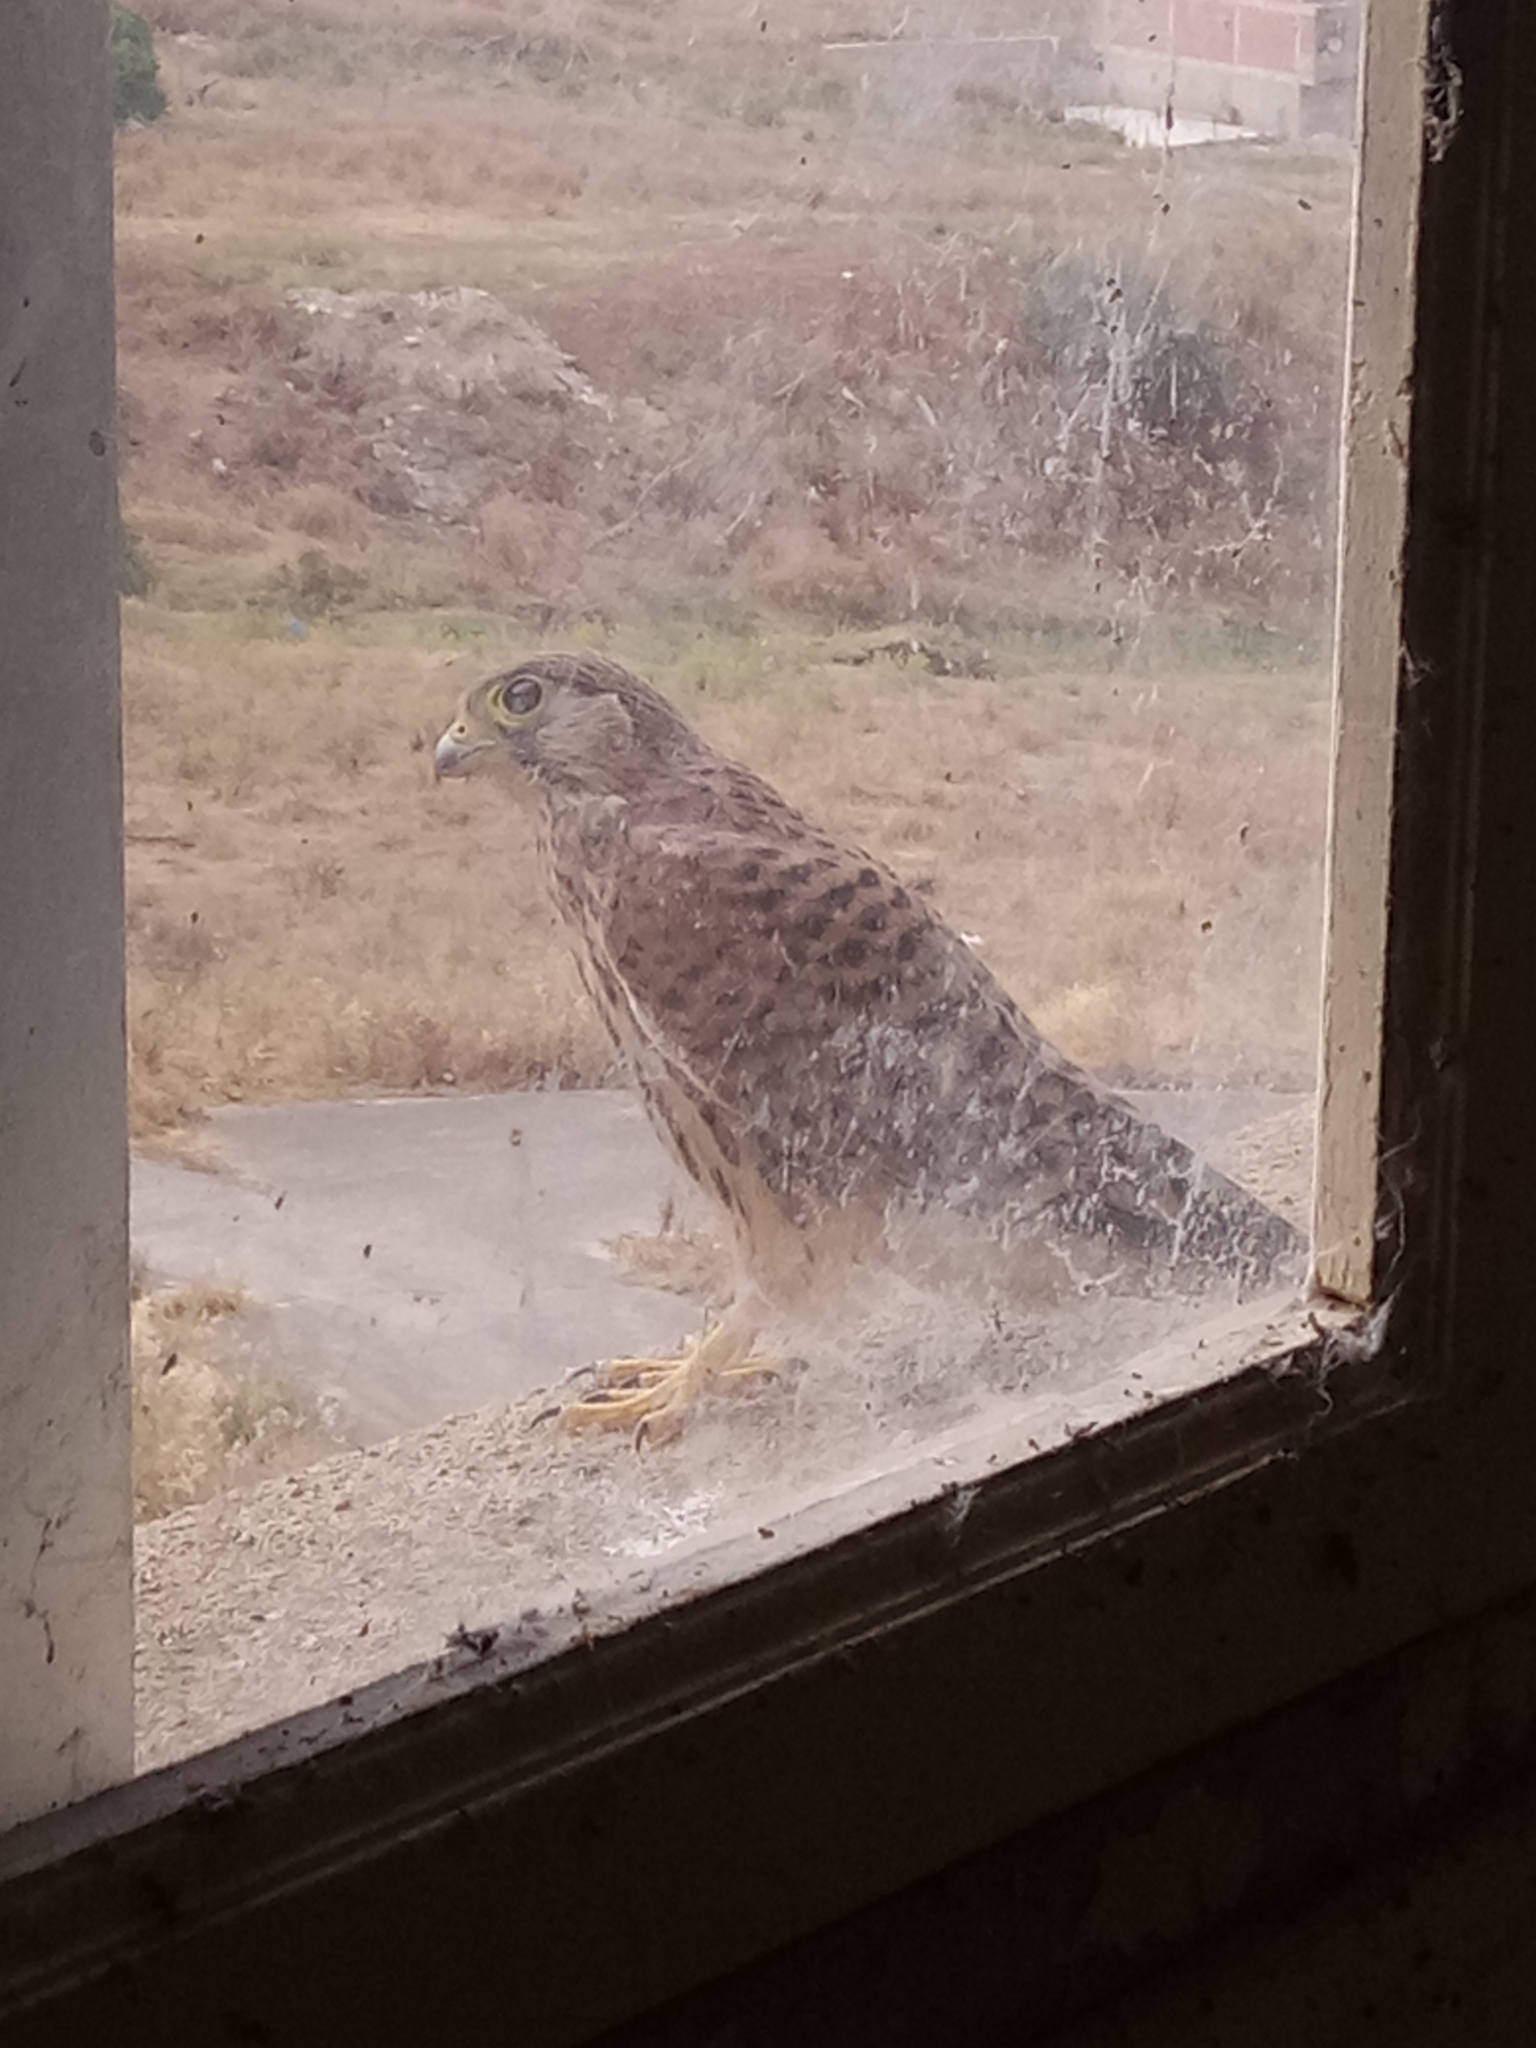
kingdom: Animalia
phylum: Chordata
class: Aves
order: Falconiformes
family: Falconidae
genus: Falco
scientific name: Falco tinnunculus
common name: Common kestrel
